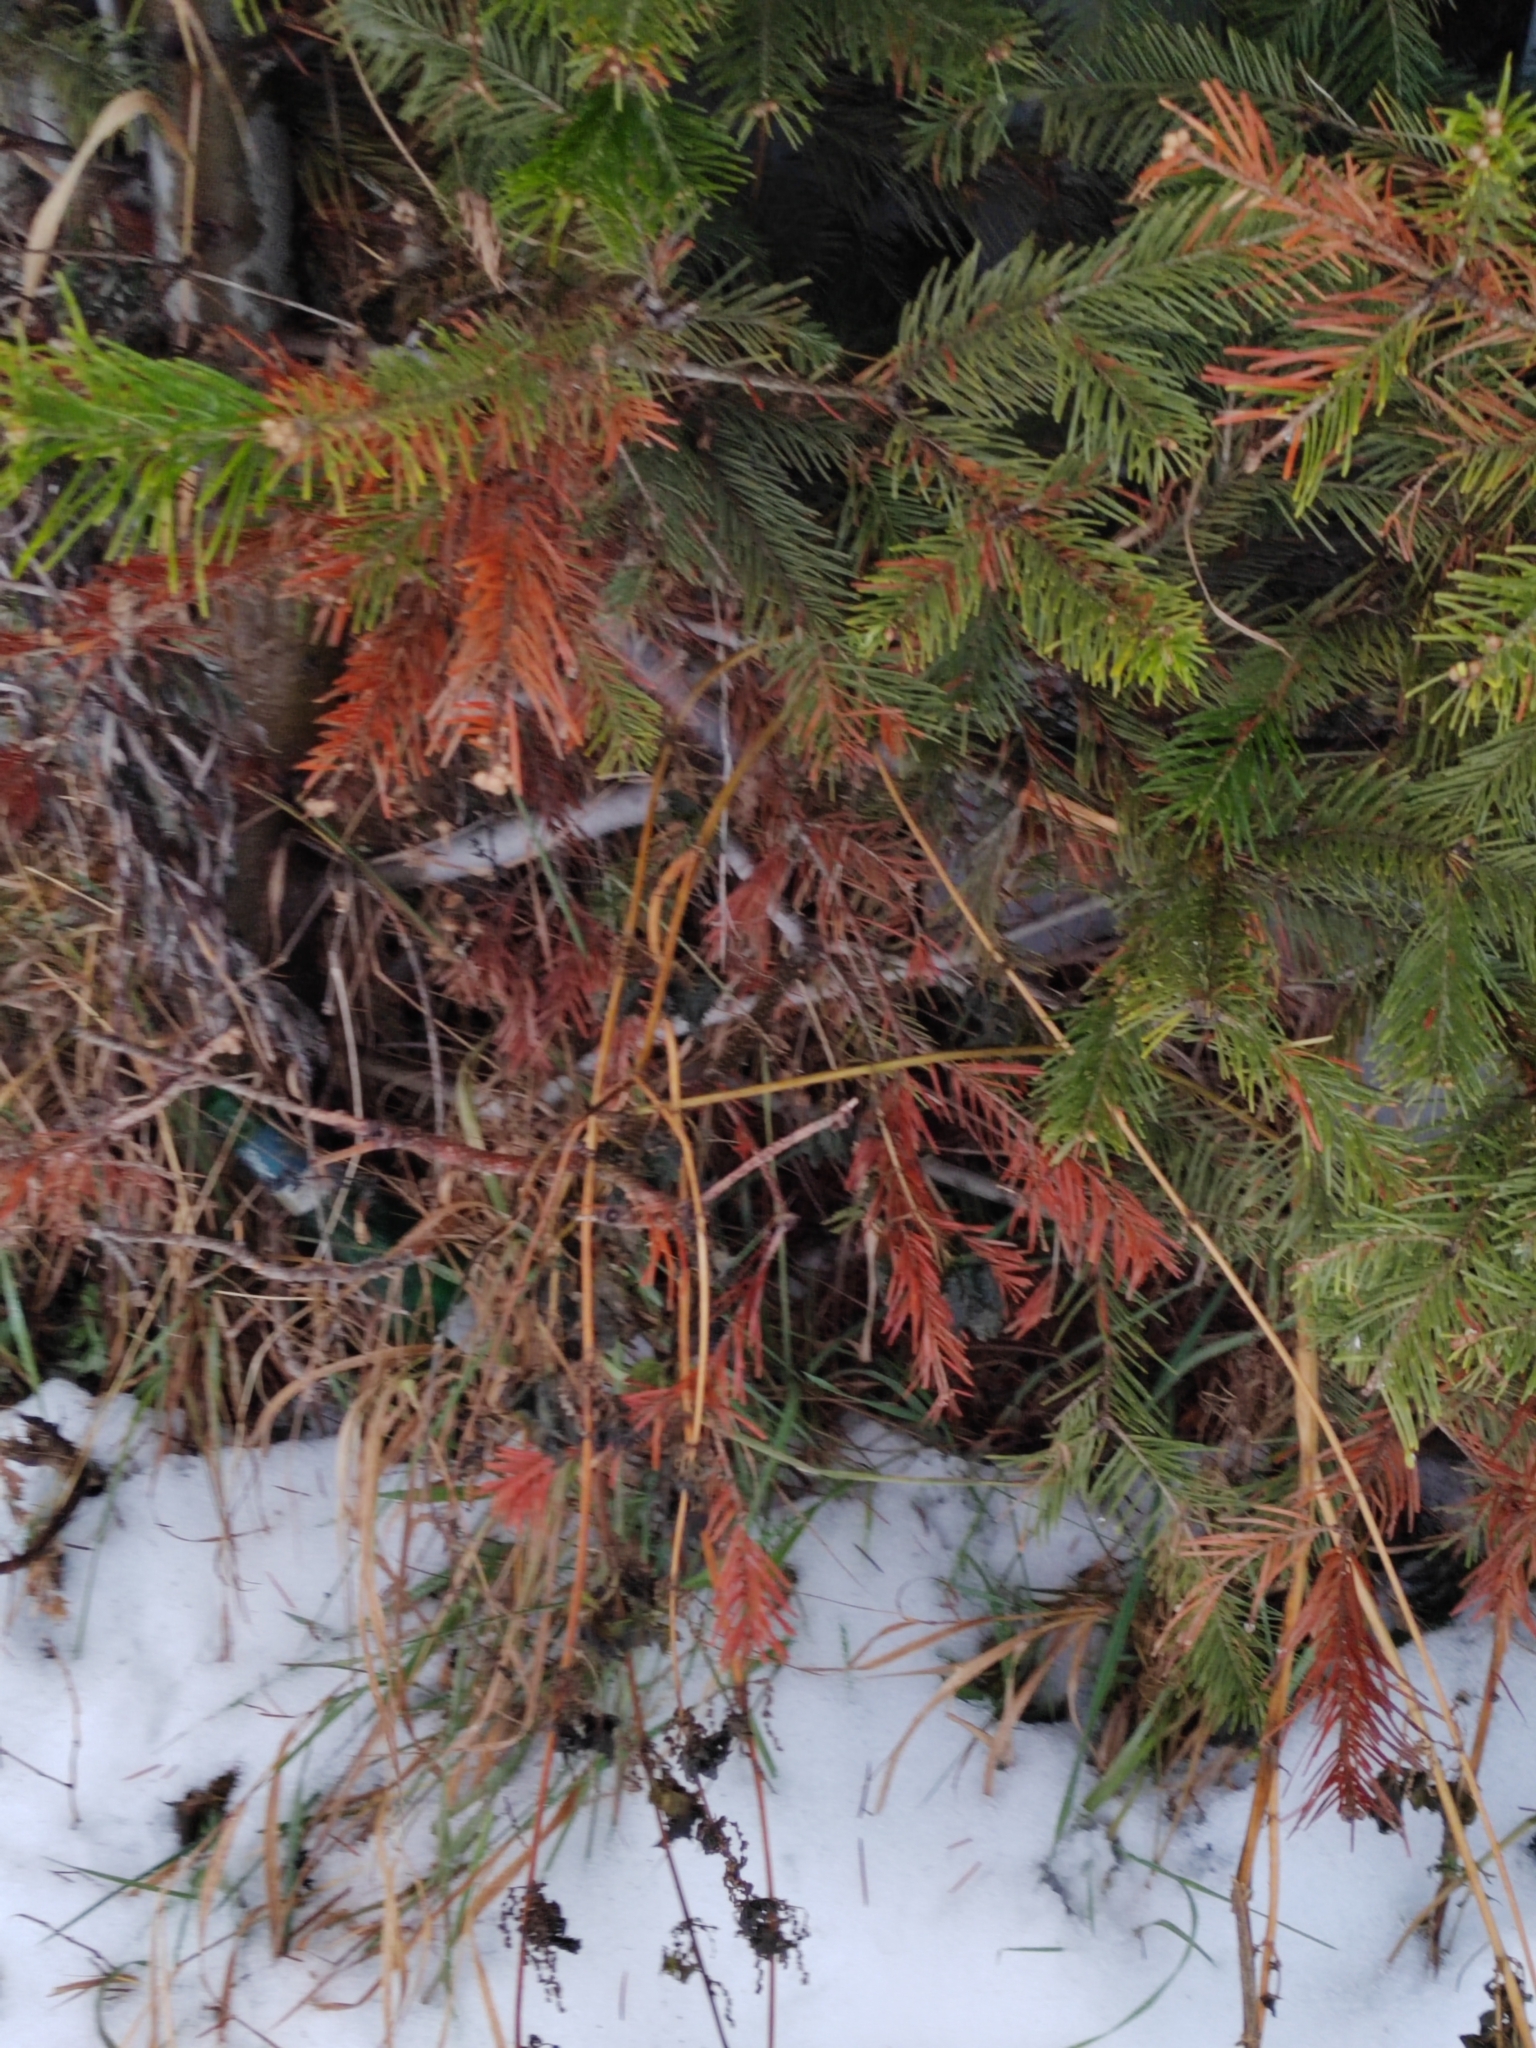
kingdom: Plantae
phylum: Tracheophyta
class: Pinopsida
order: Pinales
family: Pinaceae
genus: Abies
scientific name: Abies sibirica
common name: Siberian fir
